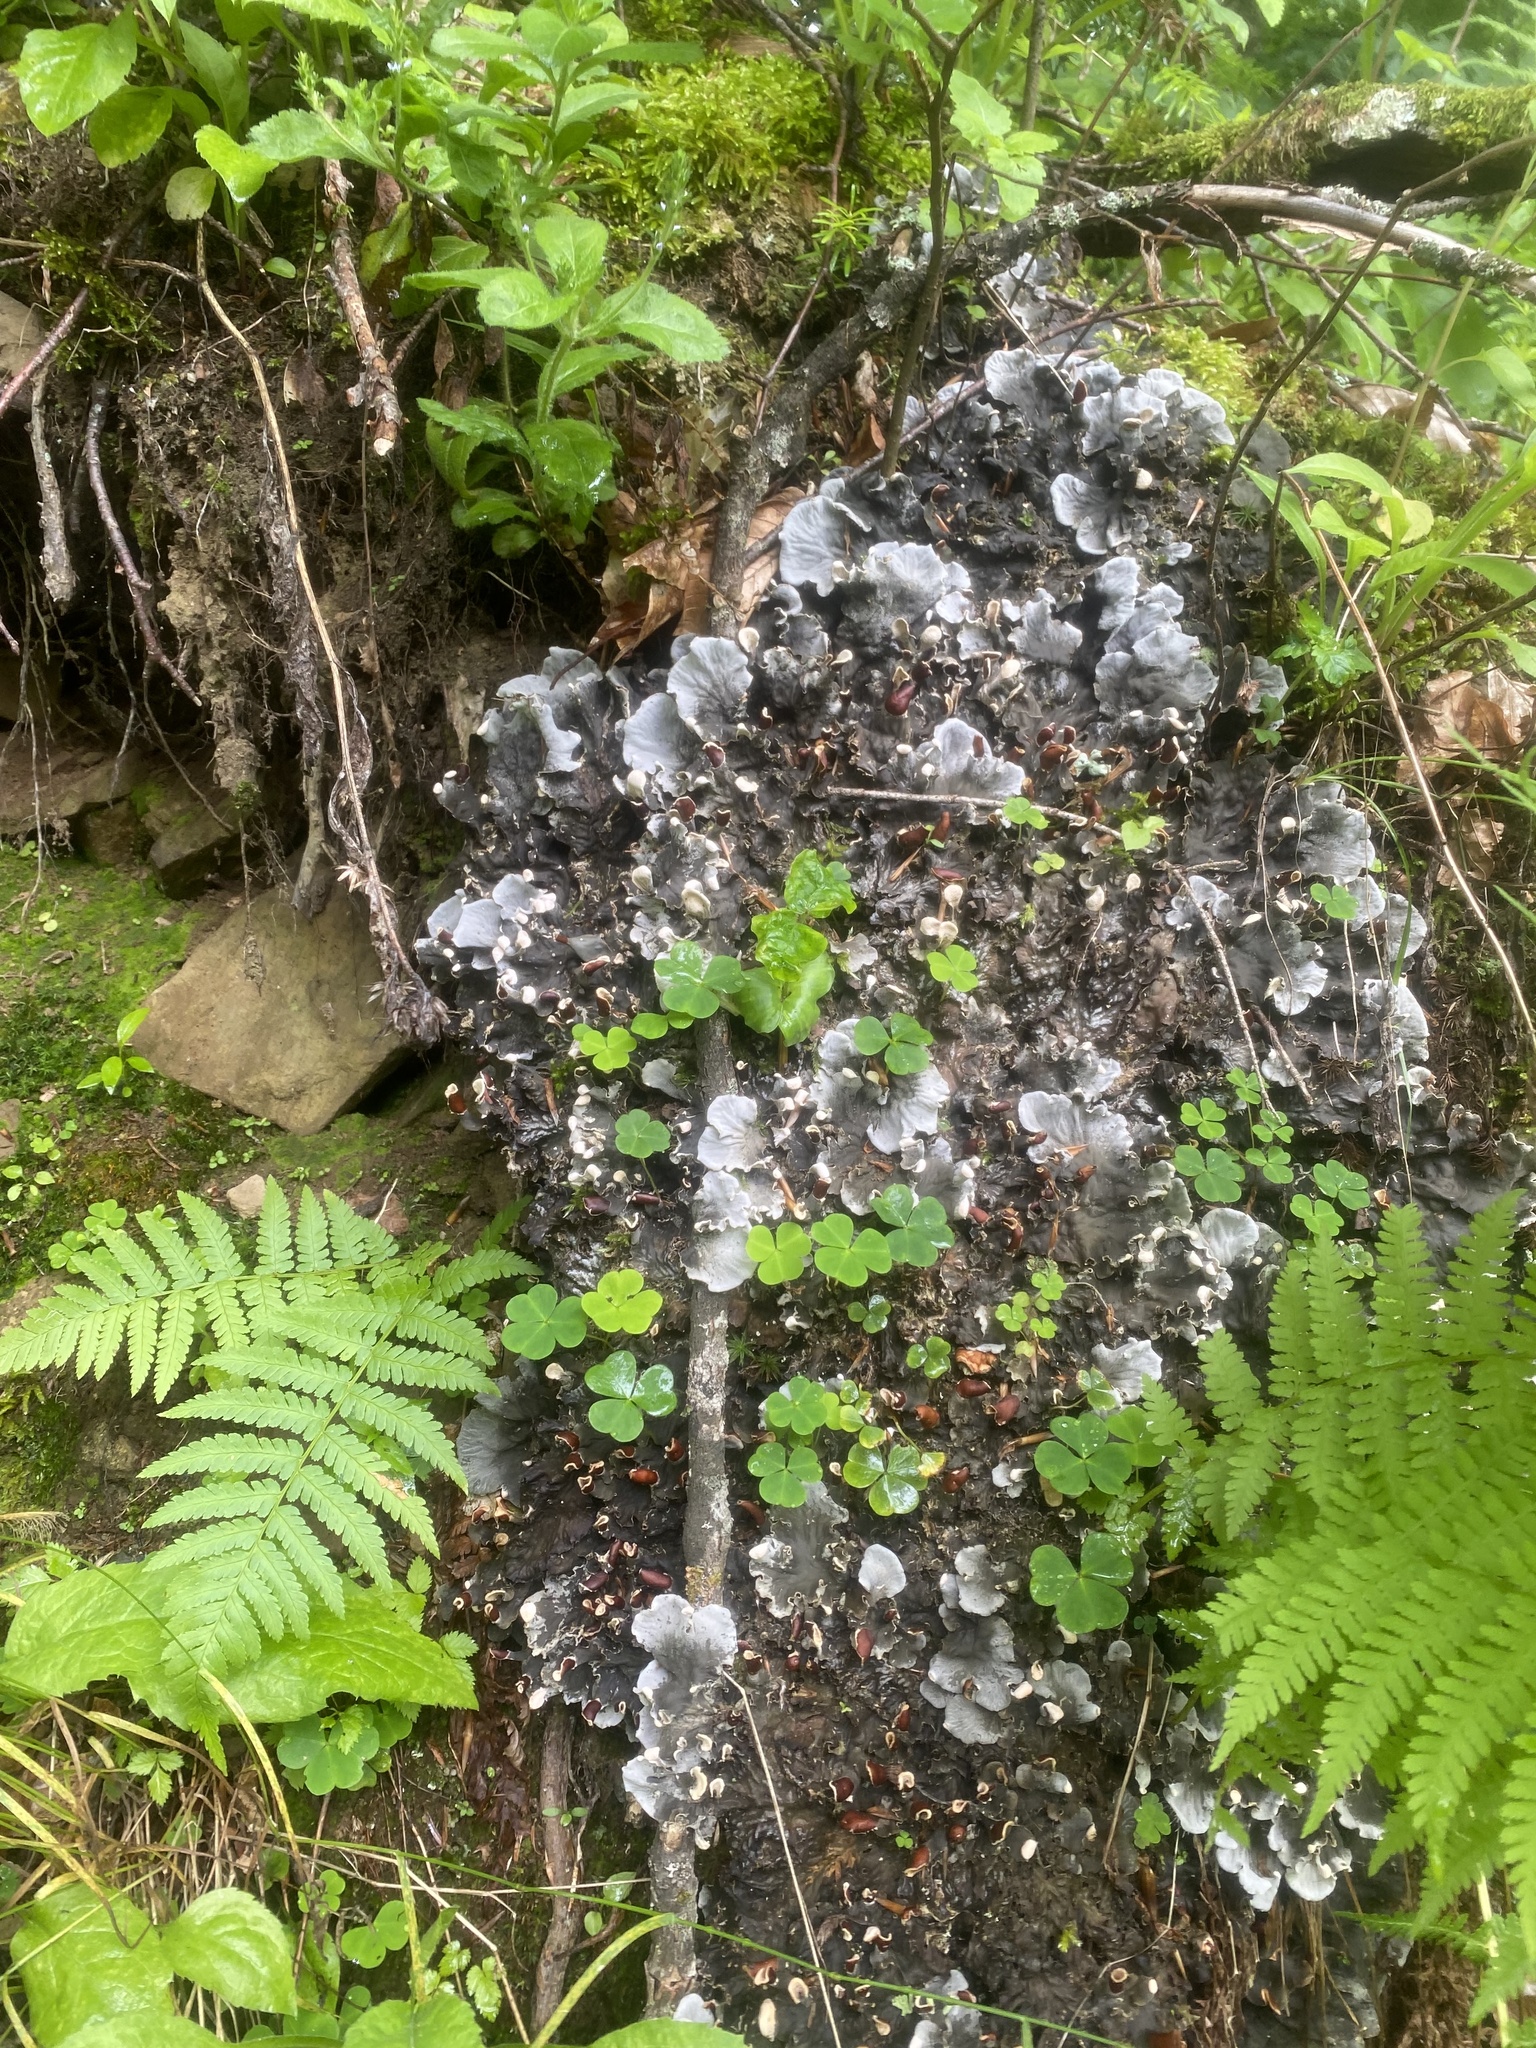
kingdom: Plantae
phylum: Tracheophyta
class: Polypodiopsida
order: Polypodiales
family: Athyriaceae
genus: Athyrium
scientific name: Athyrium filix-femina
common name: Lady fern
